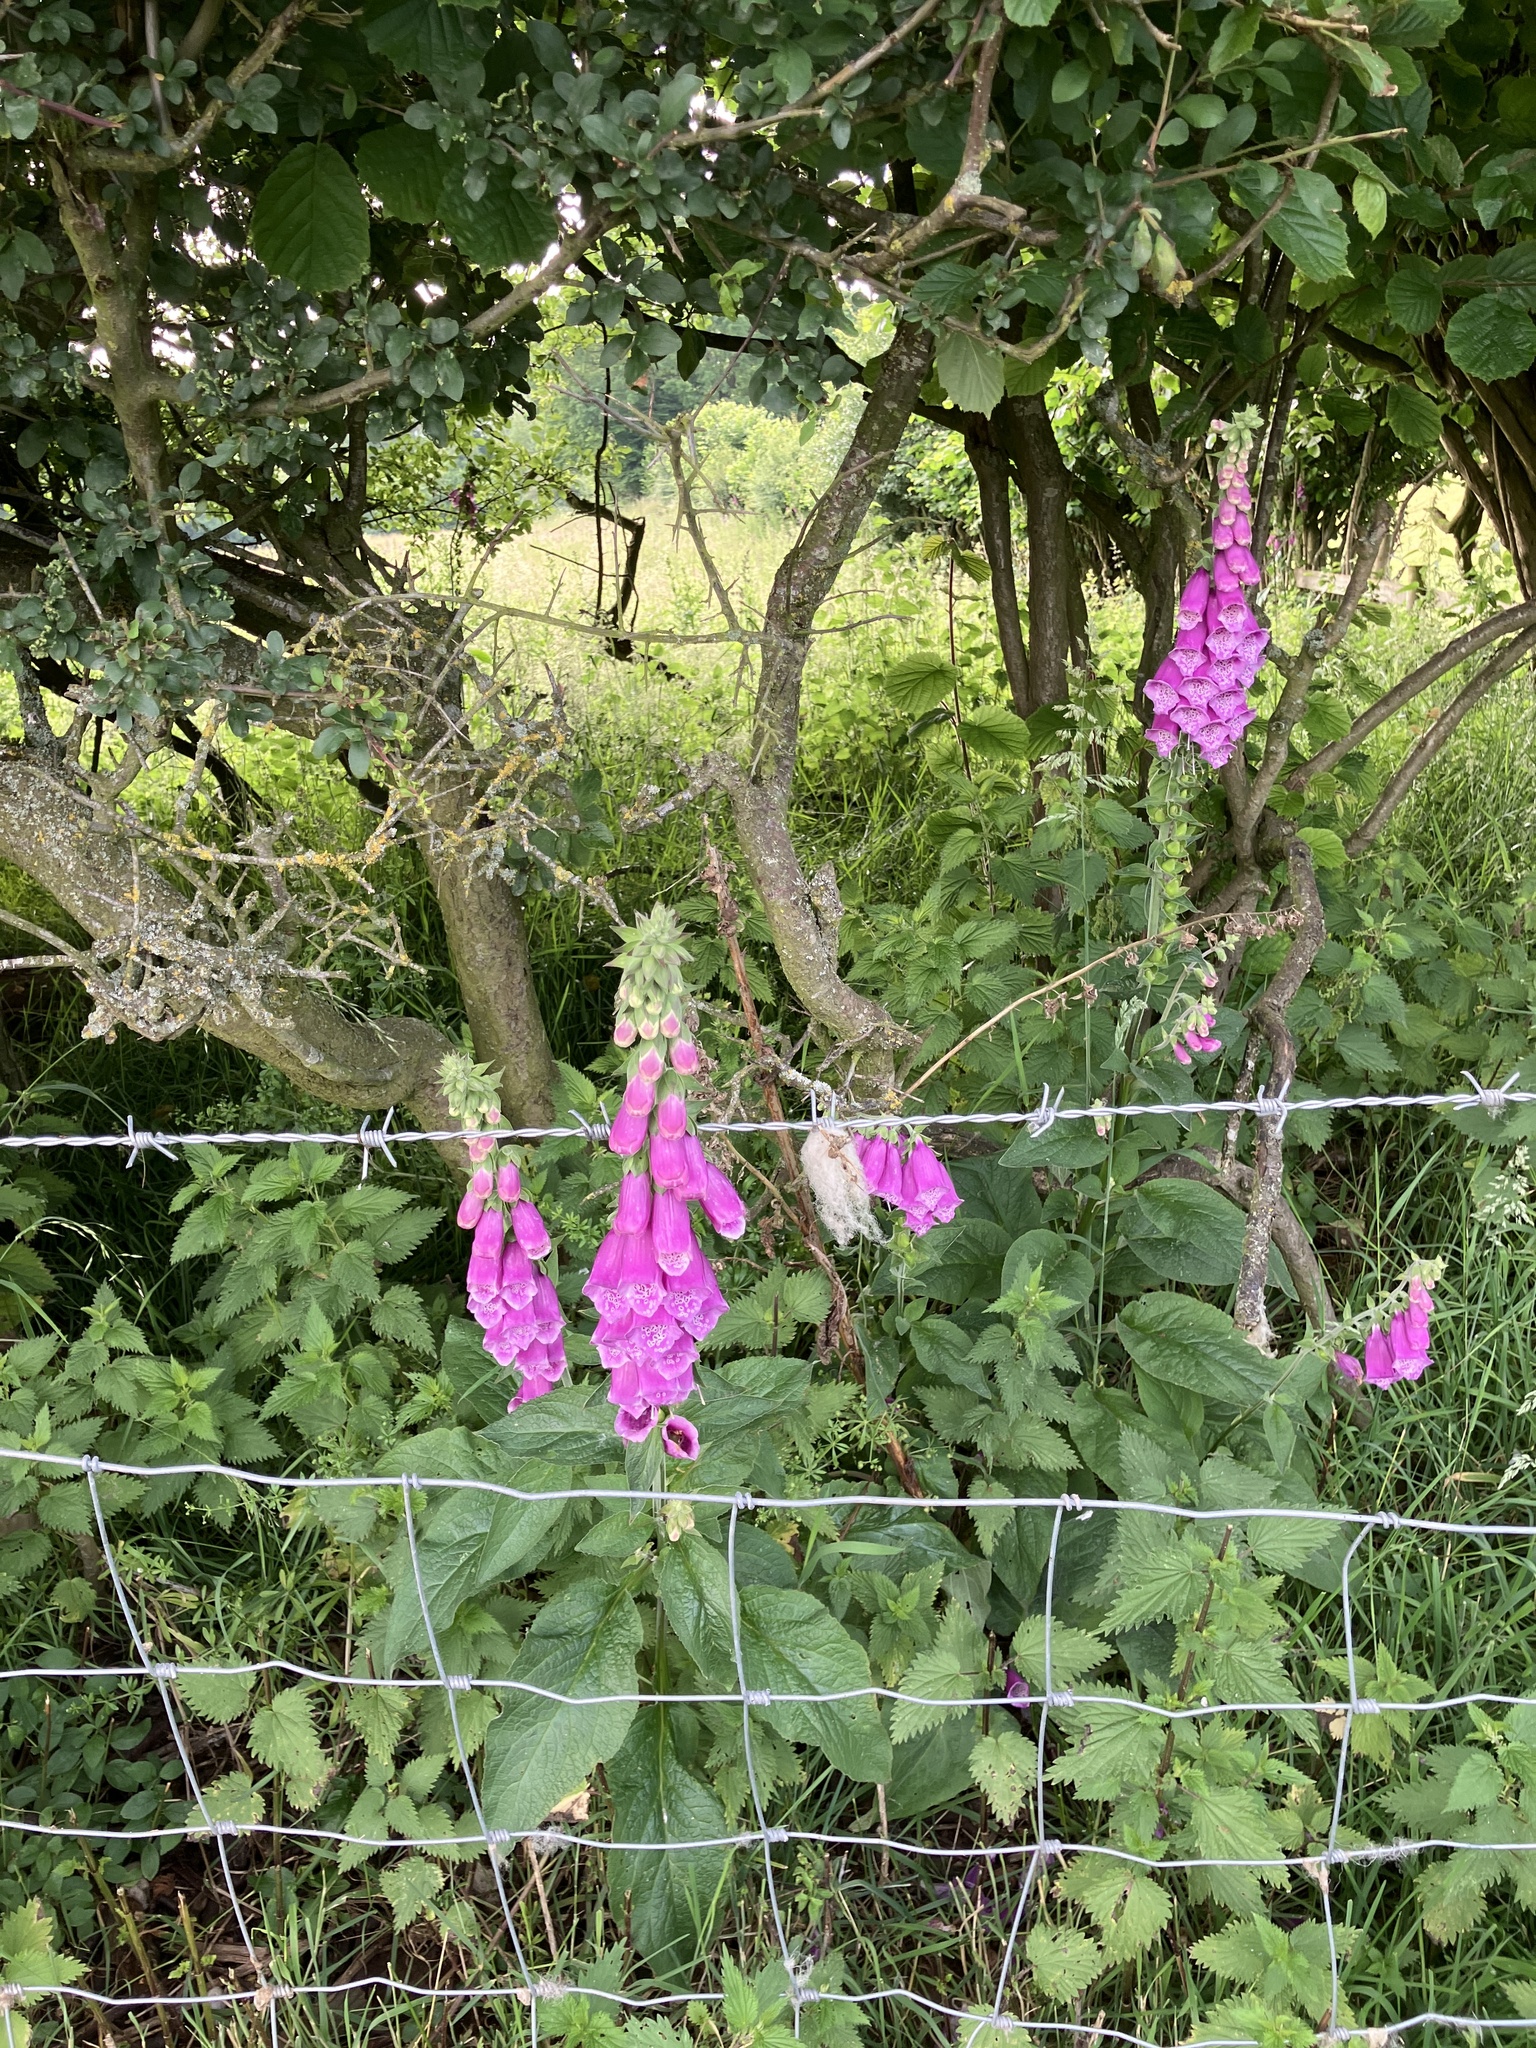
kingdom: Plantae
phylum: Tracheophyta
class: Magnoliopsida
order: Lamiales
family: Plantaginaceae
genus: Digitalis
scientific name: Digitalis purpurea
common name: Foxglove
